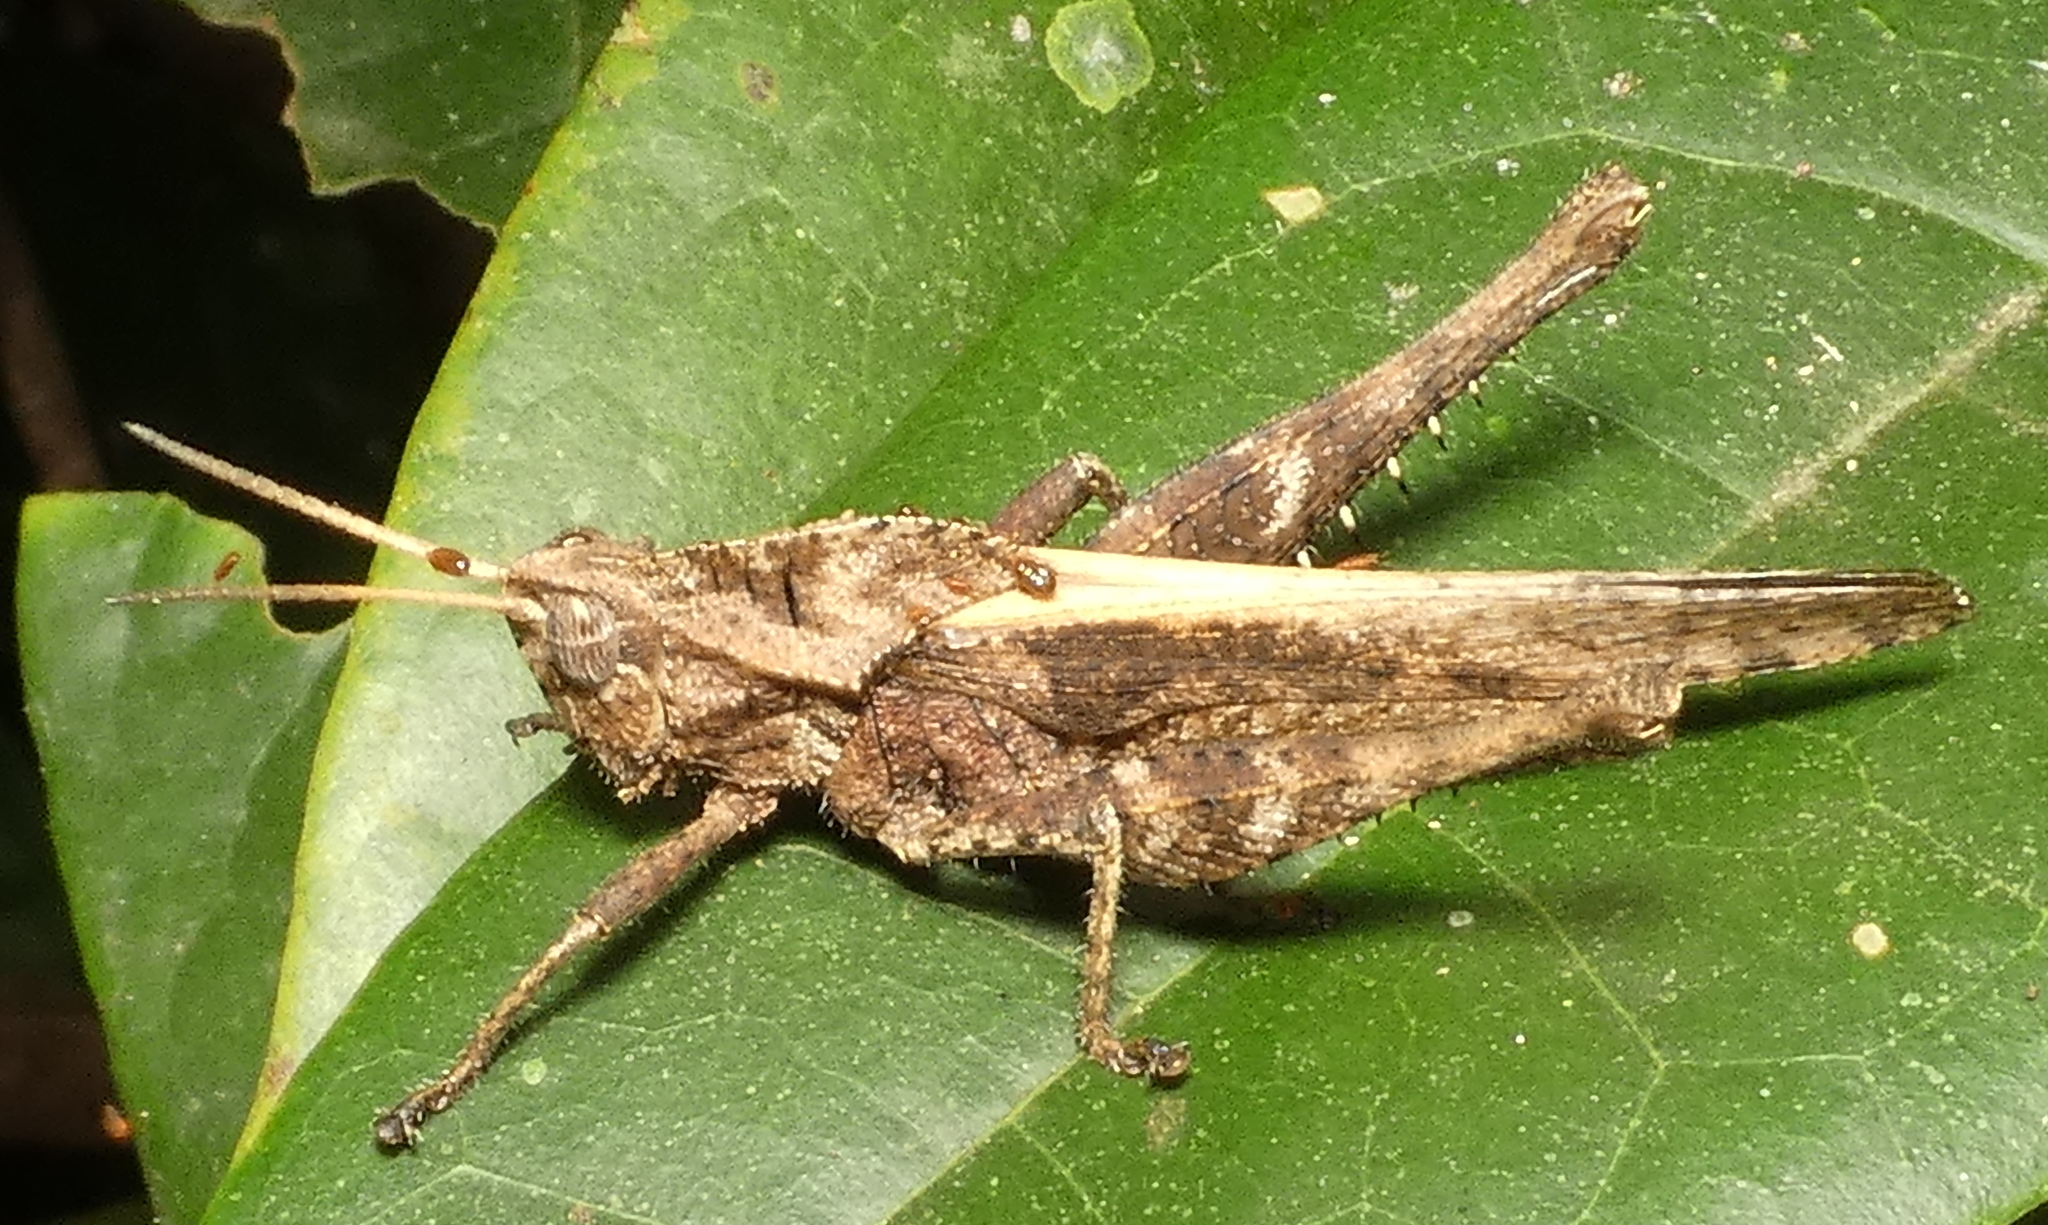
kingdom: Animalia
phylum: Arthropoda
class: Insecta
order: Orthoptera
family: Romaleidae
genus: Xyleus
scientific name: Xyleus discoideus
